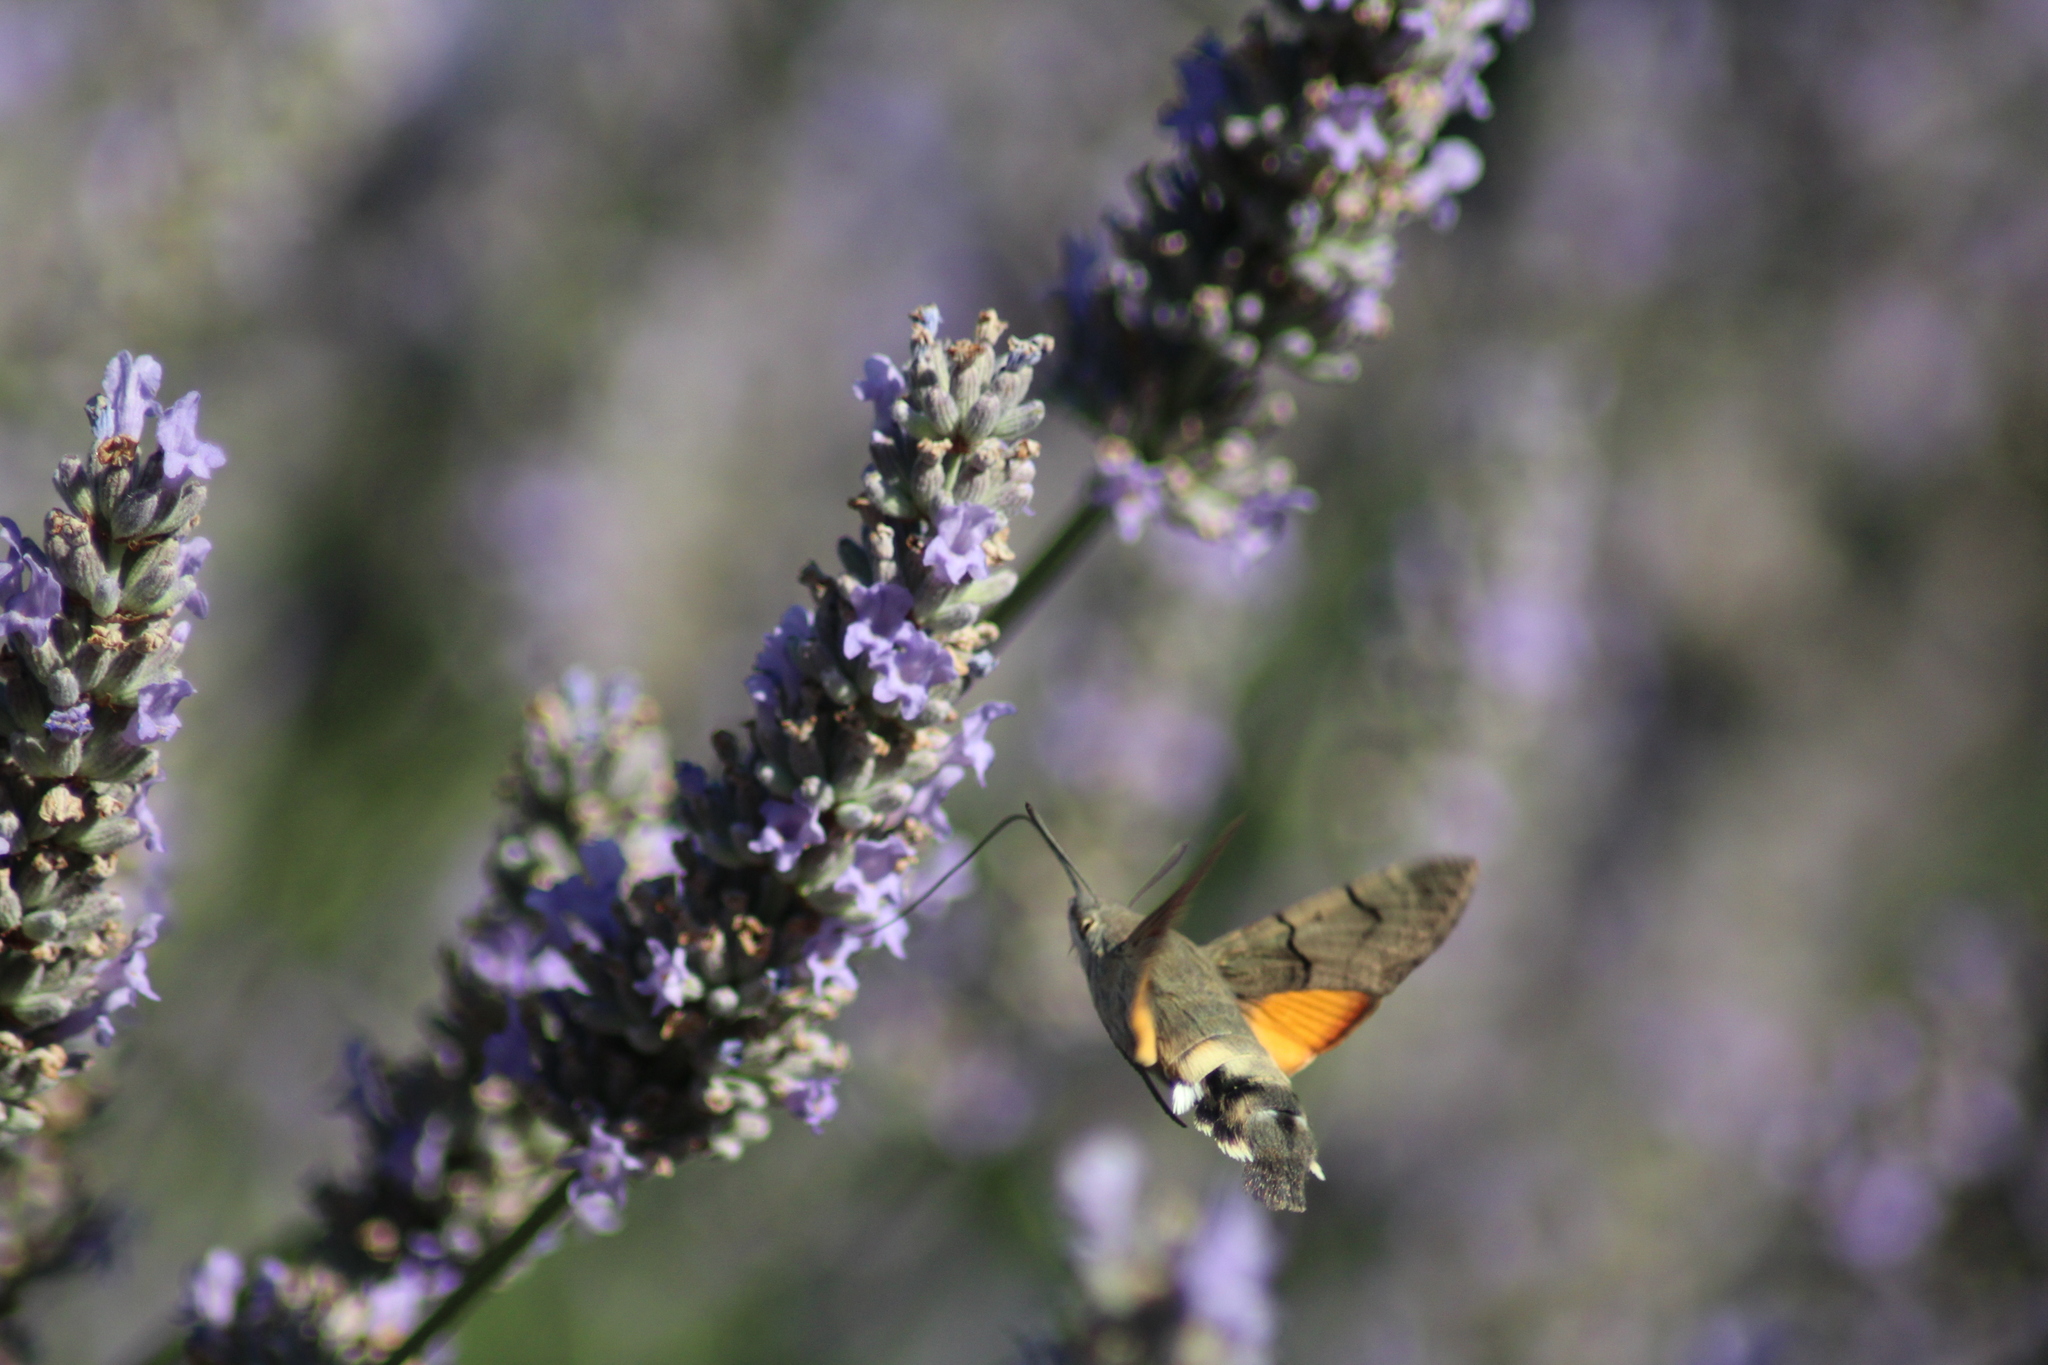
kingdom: Animalia
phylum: Arthropoda
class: Insecta
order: Lepidoptera
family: Sphingidae
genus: Macroglossum
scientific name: Macroglossum stellatarum
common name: Humming-bird hawk-moth
